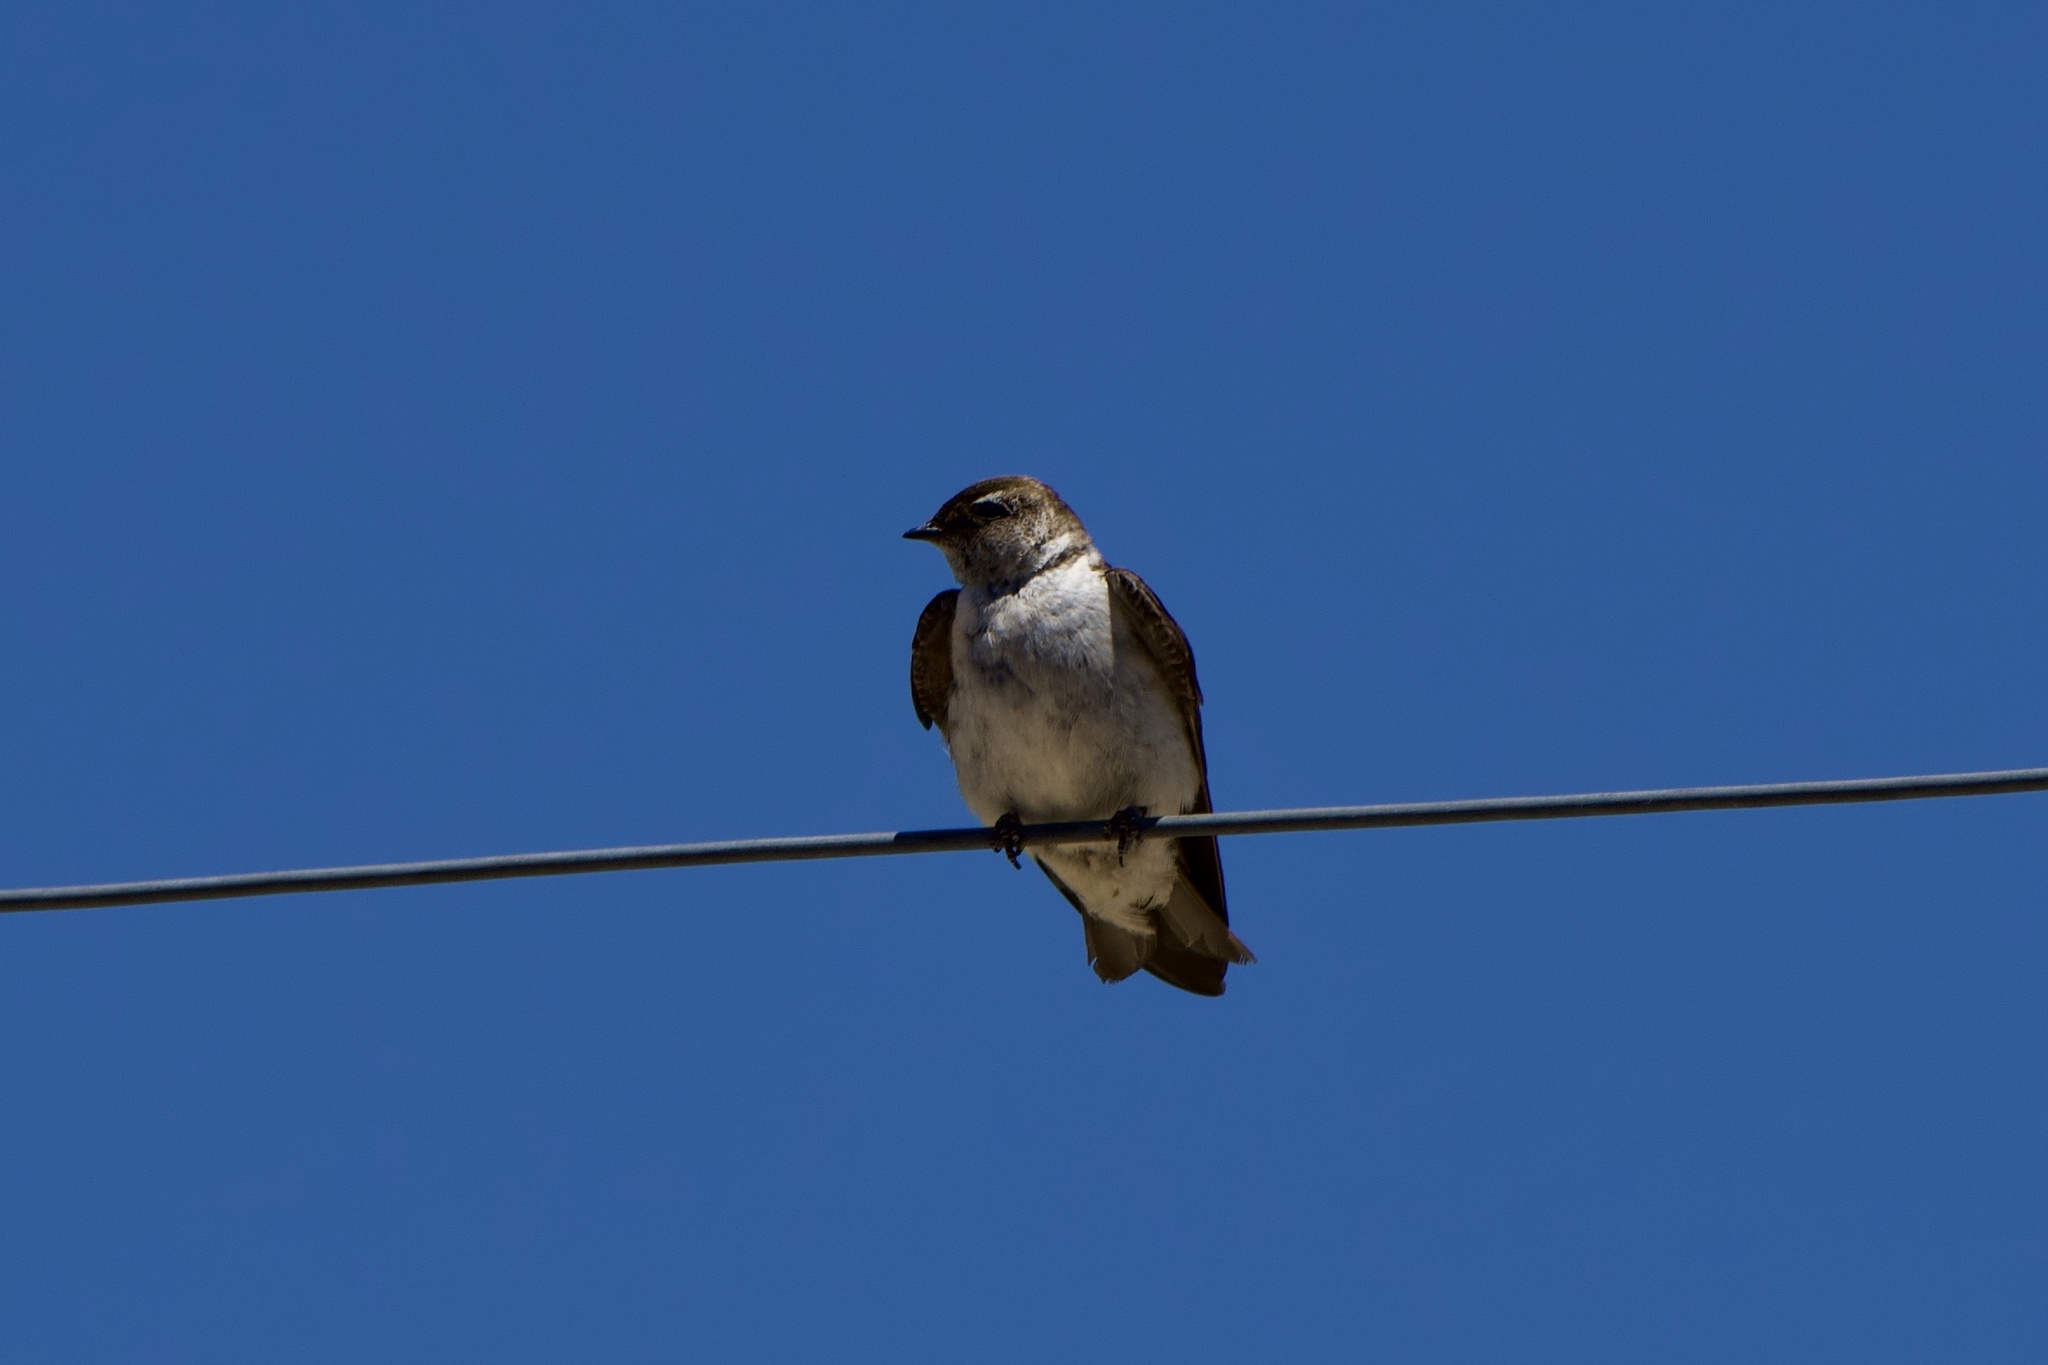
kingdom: Animalia
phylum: Chordata
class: Aves
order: Passeriformes
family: Hirundinidae
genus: Tachycineta
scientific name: Tachycineta thalassina
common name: Violet-green swallow
